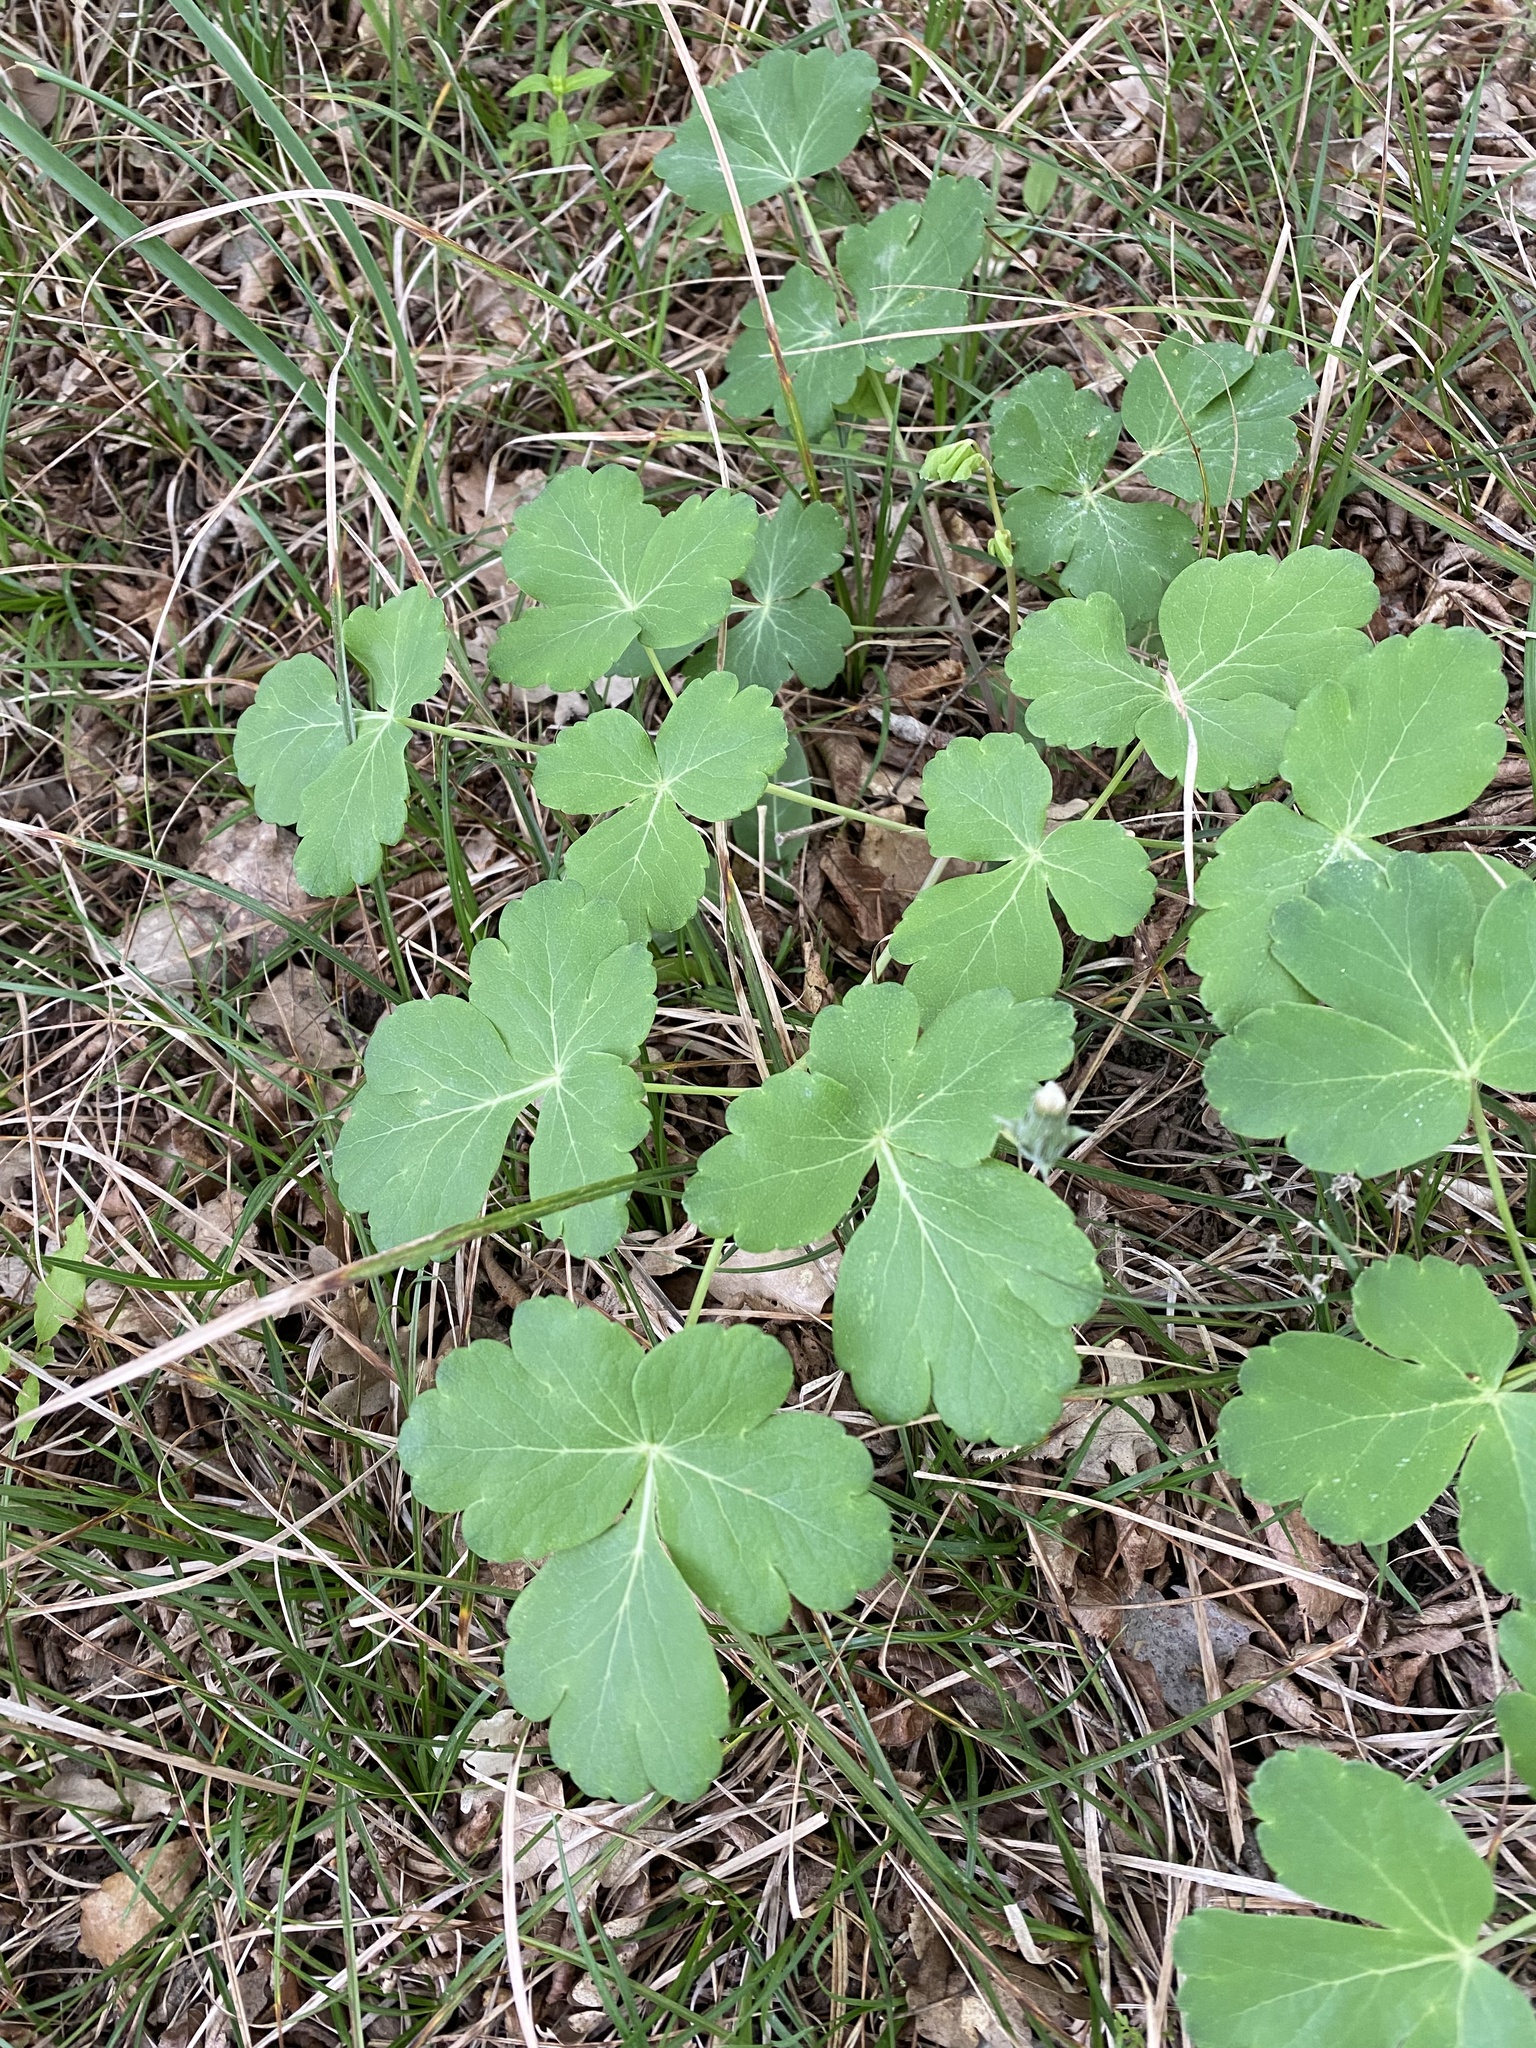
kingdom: Plantae
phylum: Tracheophyta
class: Magnoliopsida
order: Apiales
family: Apiaceae
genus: Laser
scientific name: Laser trilobum
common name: Laser
